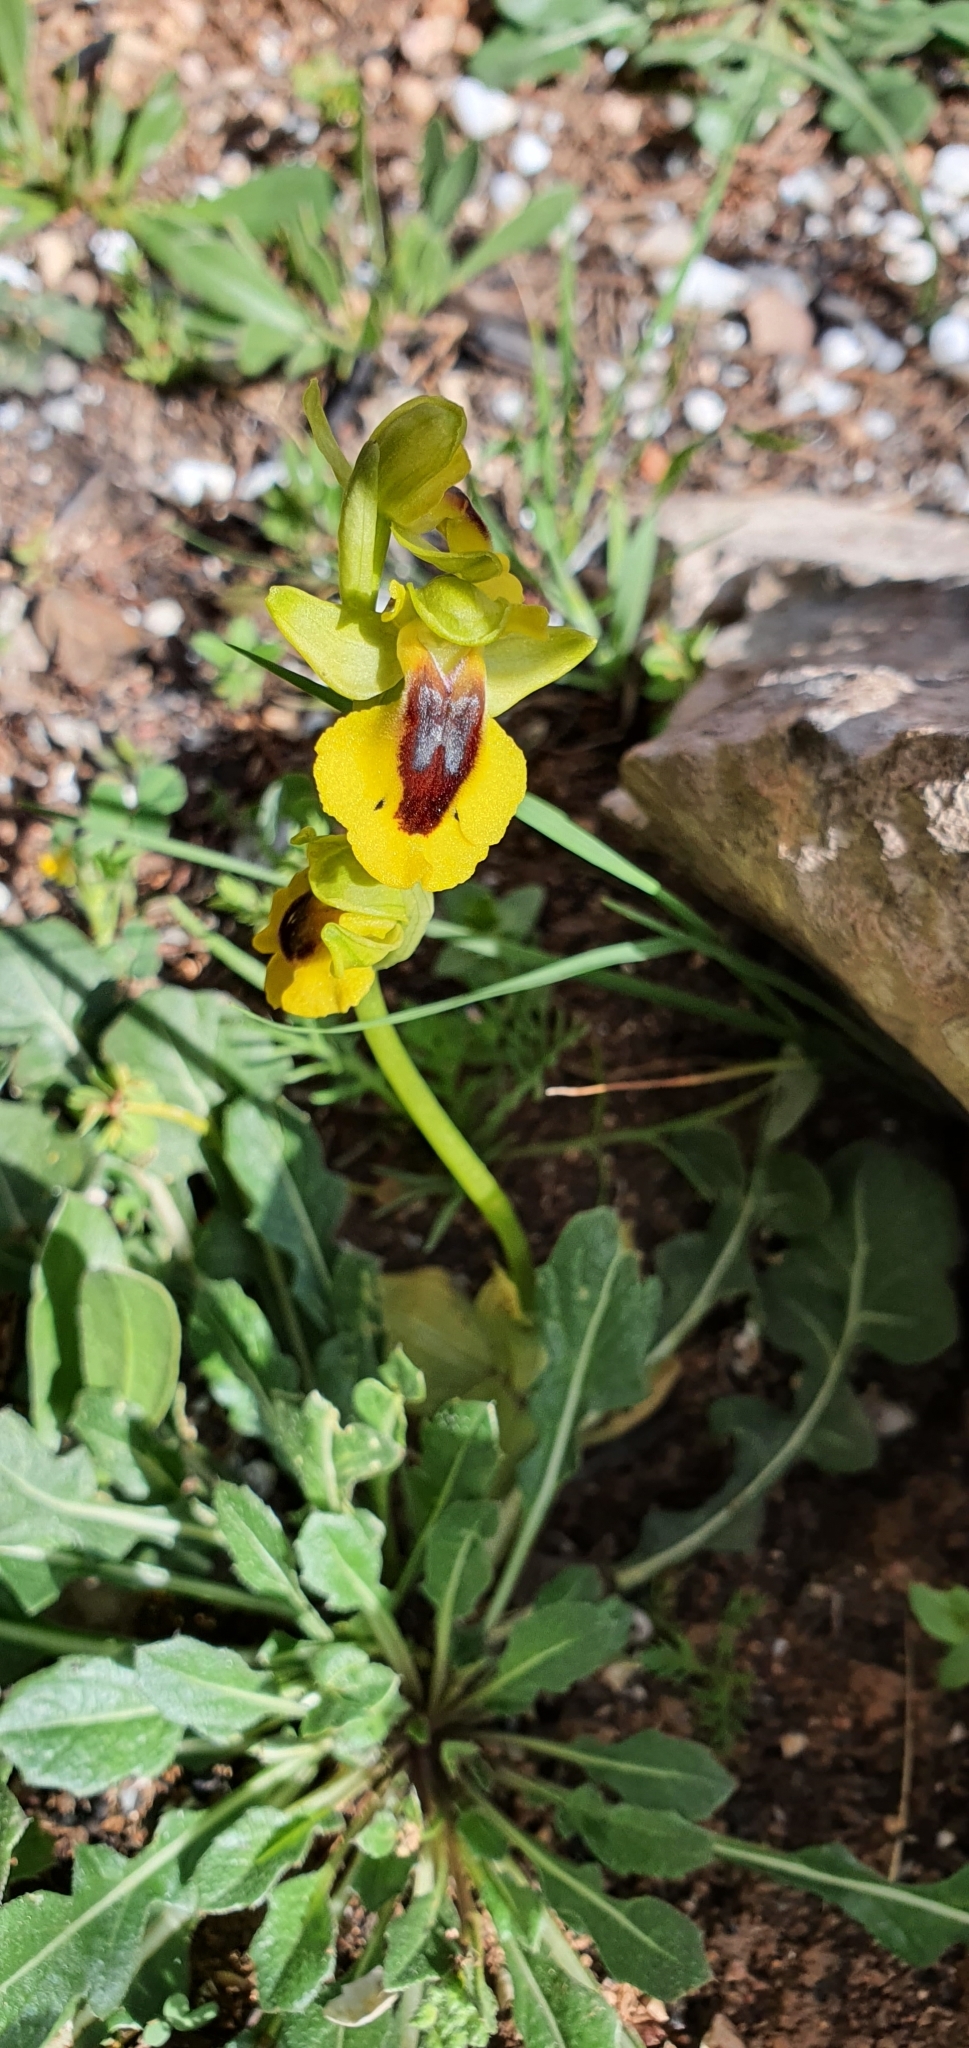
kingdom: Plantae
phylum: Tracheophyta
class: Liliopsida
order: Asparagales
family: Orchidaceae
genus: Ophrys
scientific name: Ophrys lutea
